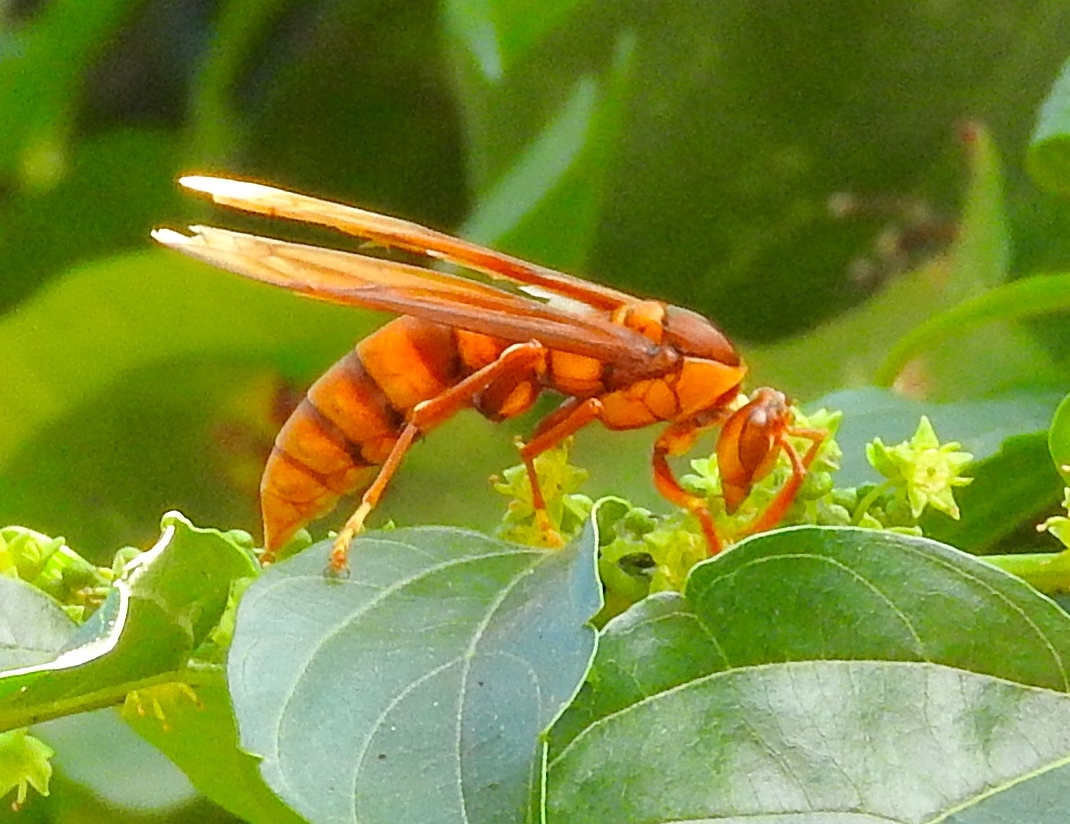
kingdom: Animalia
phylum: Arthropoda
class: Insecta
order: Hymenoptera
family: Eumenidae
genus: Polistes
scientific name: Polistes carnifex
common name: Paper wasp
